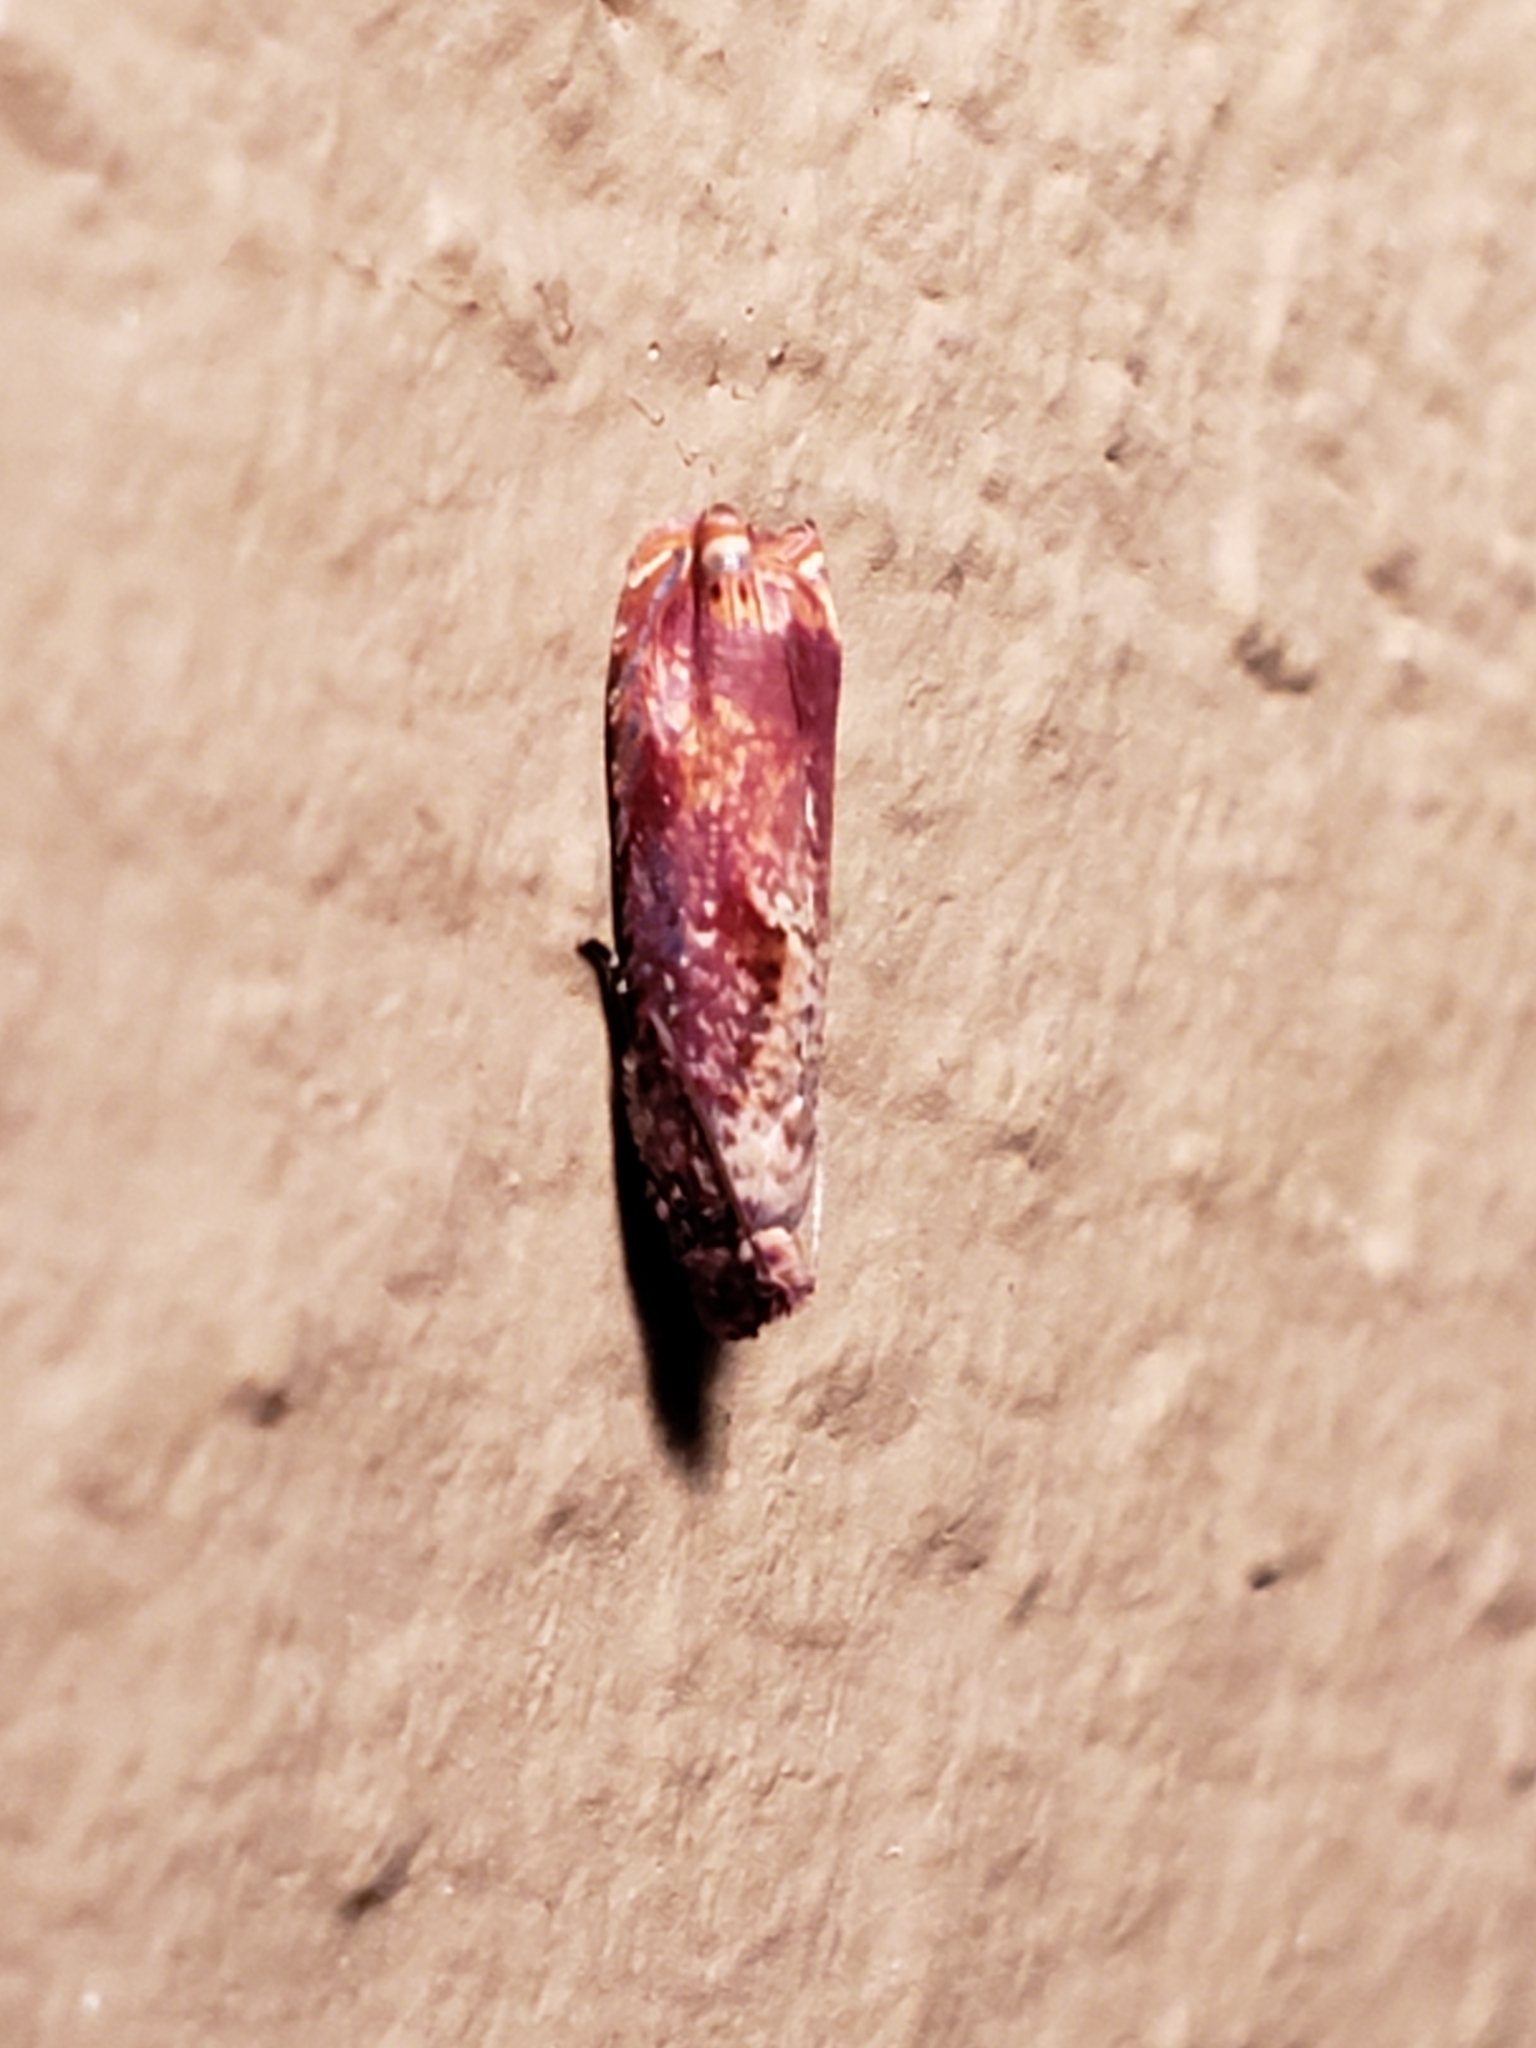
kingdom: Animalia
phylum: Arthropoda
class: Insecta
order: Lepidoptera
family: Tortricidae
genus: Episimus
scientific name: Episimus tyrius
